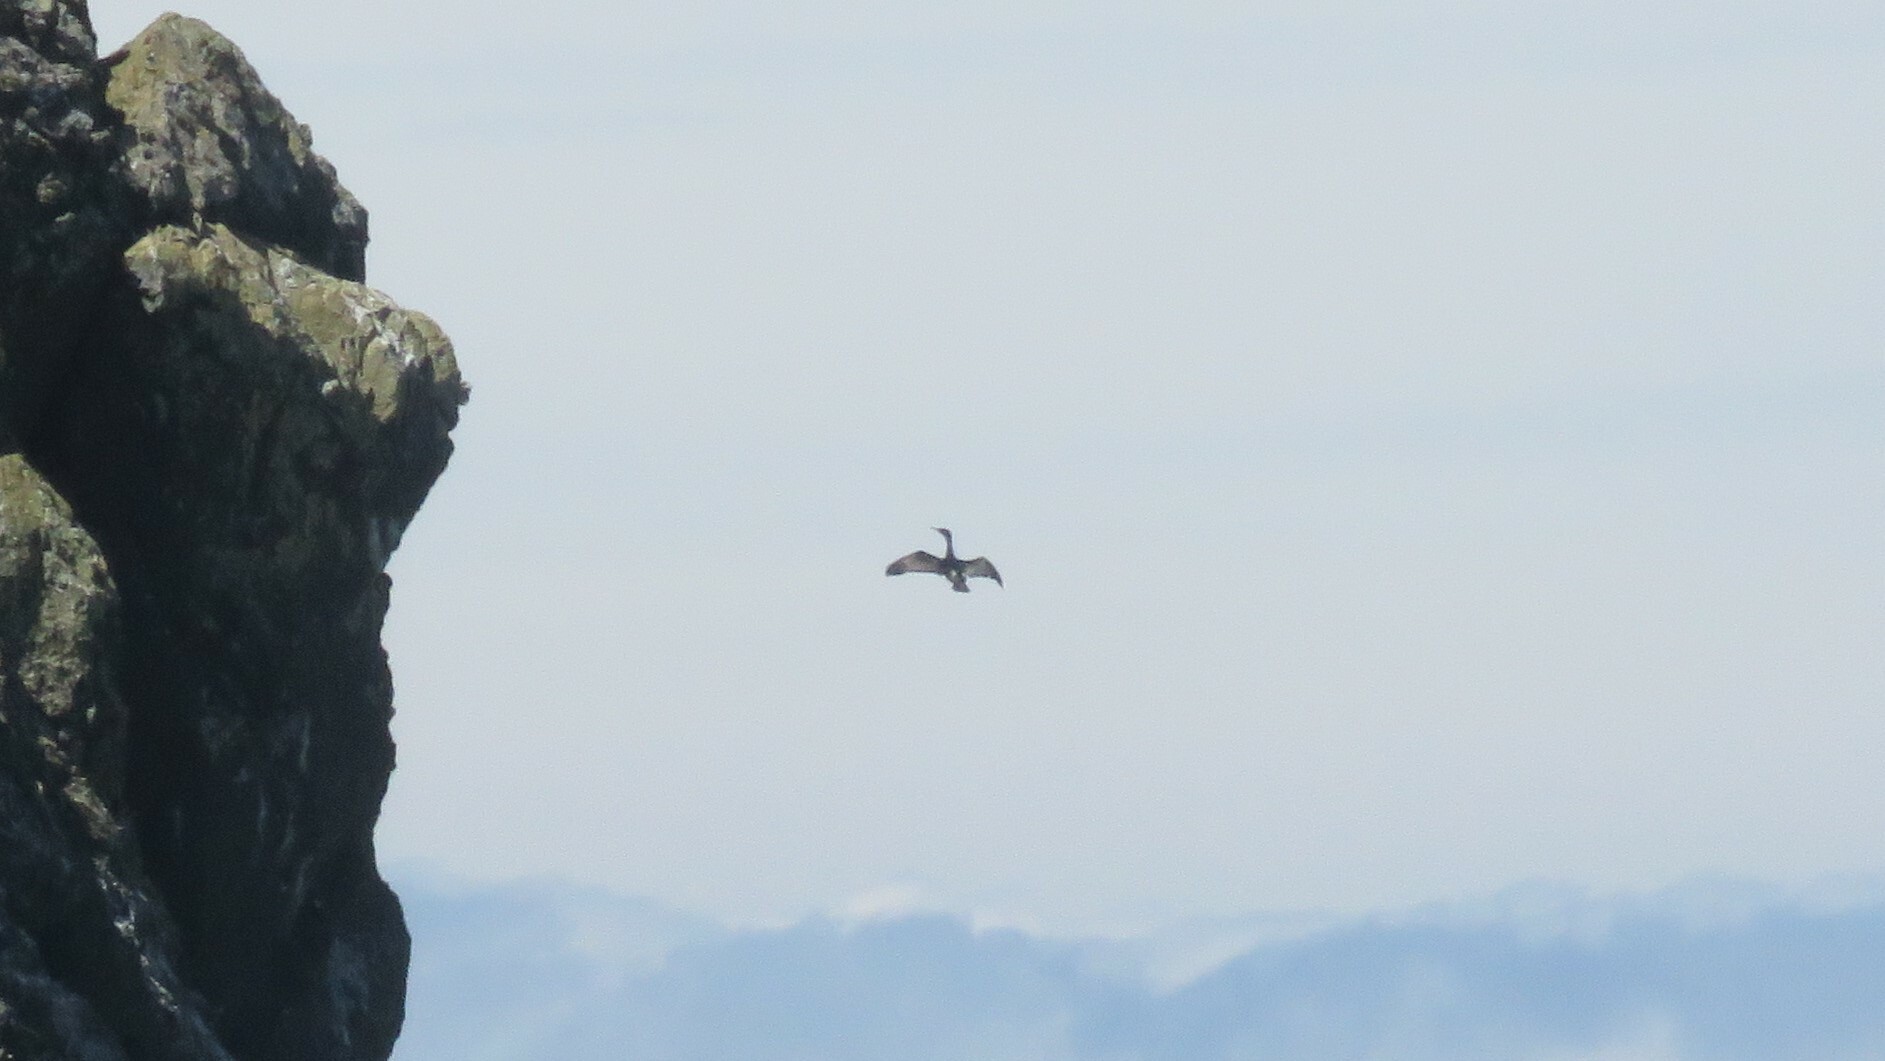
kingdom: Animalia
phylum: Chordata
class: Aves
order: Suliformes
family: Phalacrocoracidae
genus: Phalacrocorax
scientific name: Phalacrocorax pelagicus
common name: Pelagic cormorant
